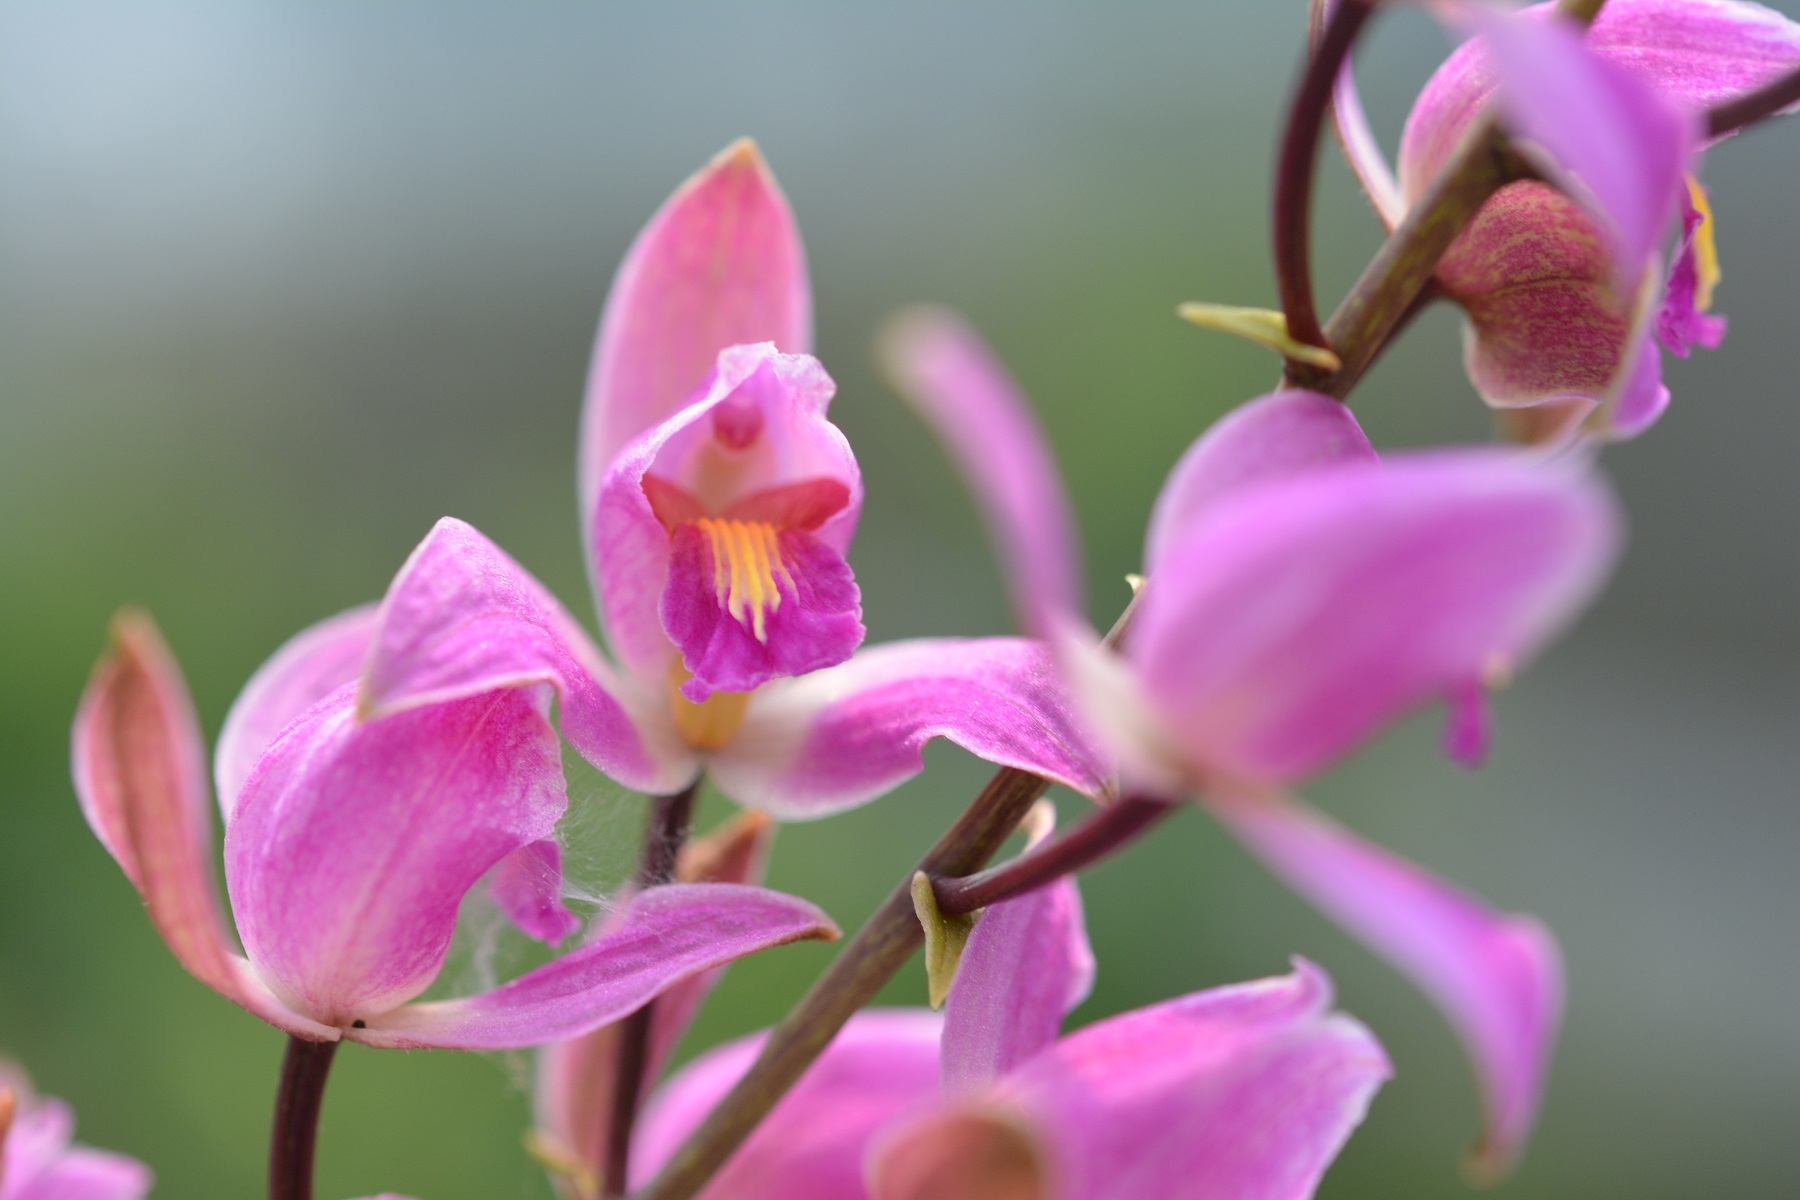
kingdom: Plantae
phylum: Tracheophyta
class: Liliopsida
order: Asparagales
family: Orchidaceae
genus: Bletia
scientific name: Bletia purpurea
